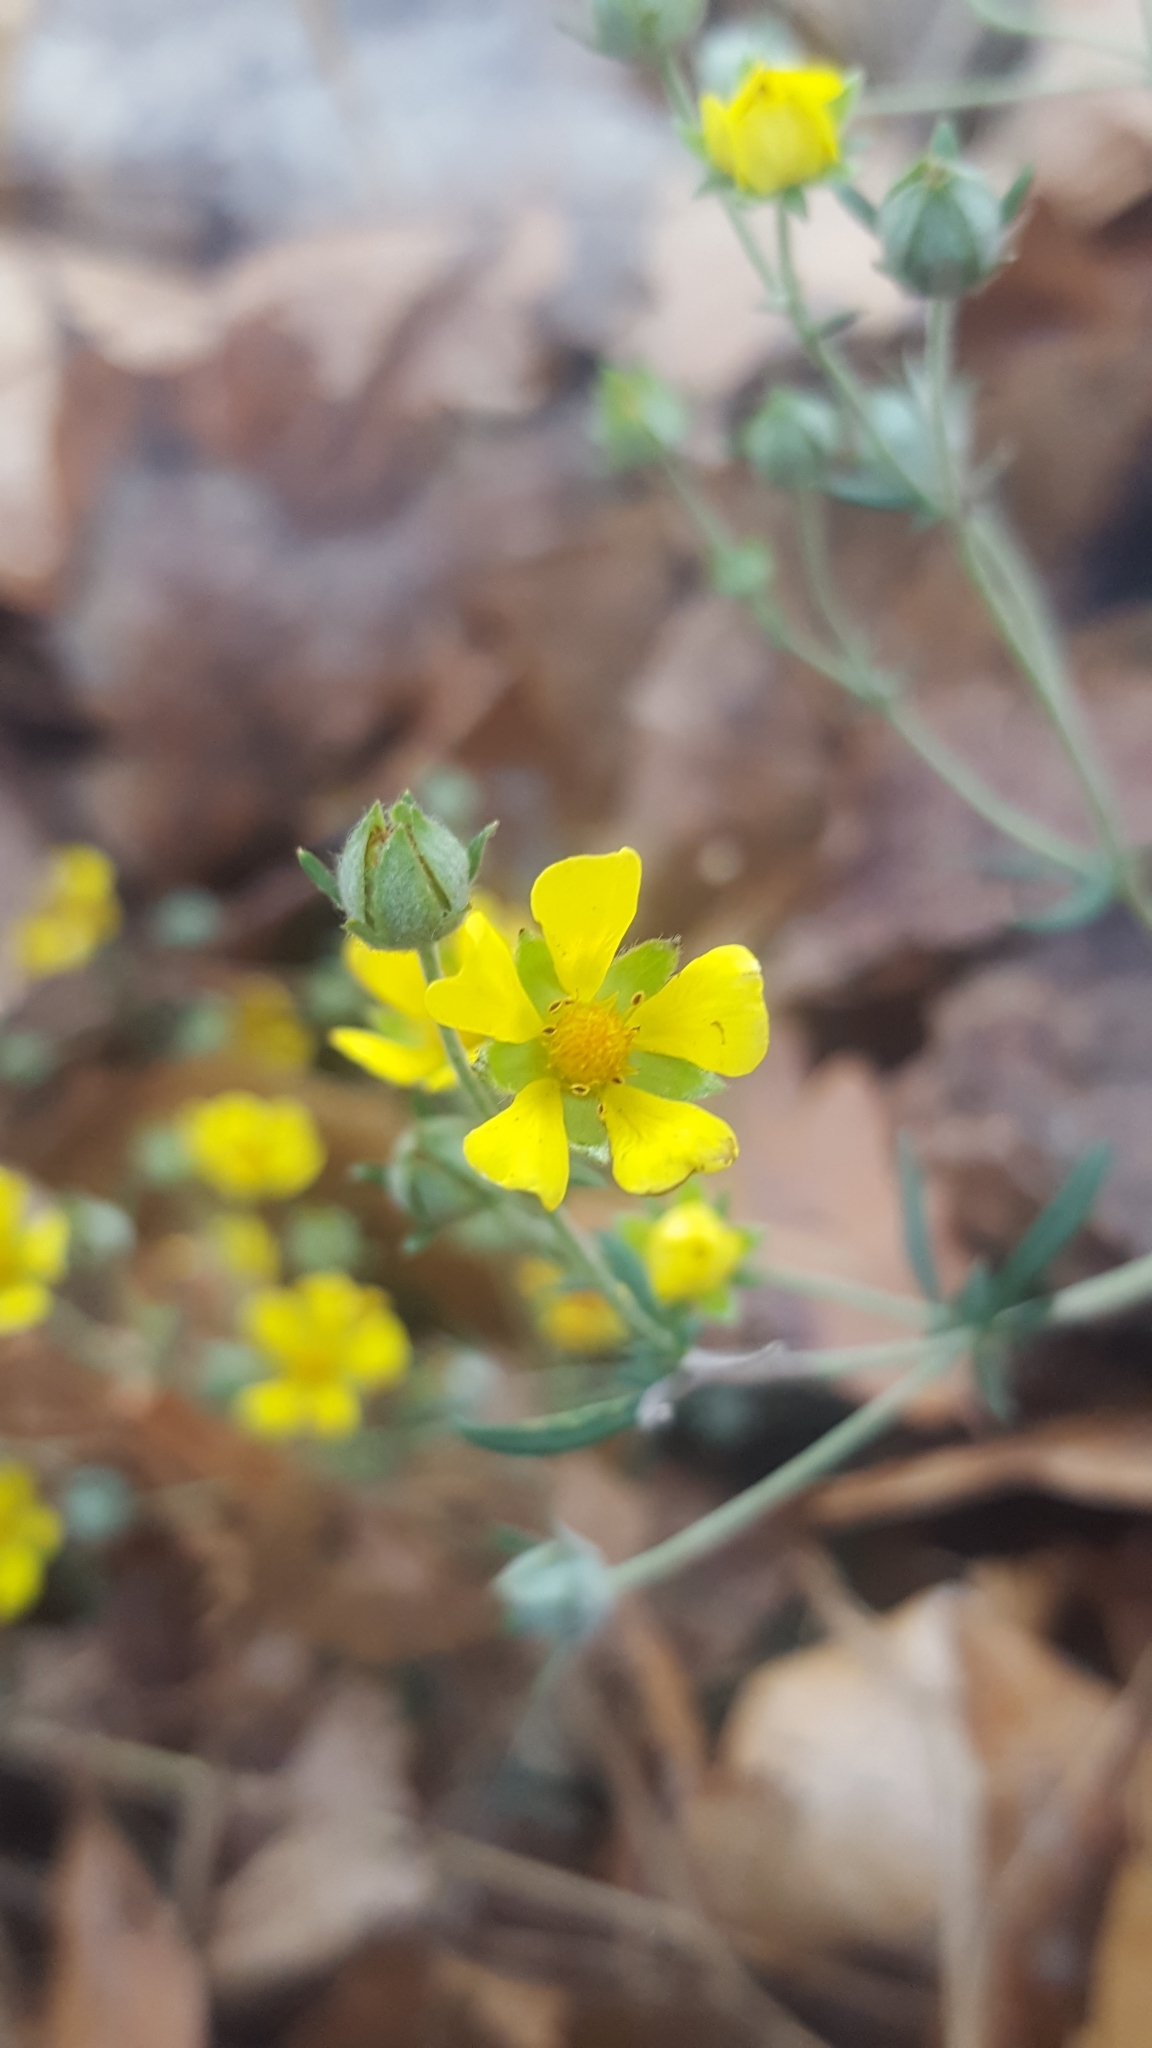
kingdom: Plantae
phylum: Tracheophyta
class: Magnoliopsida
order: Rosales
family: Rosaceae
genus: Potentilla
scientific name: Potentilla argentea
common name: Hoary cinquefoil
